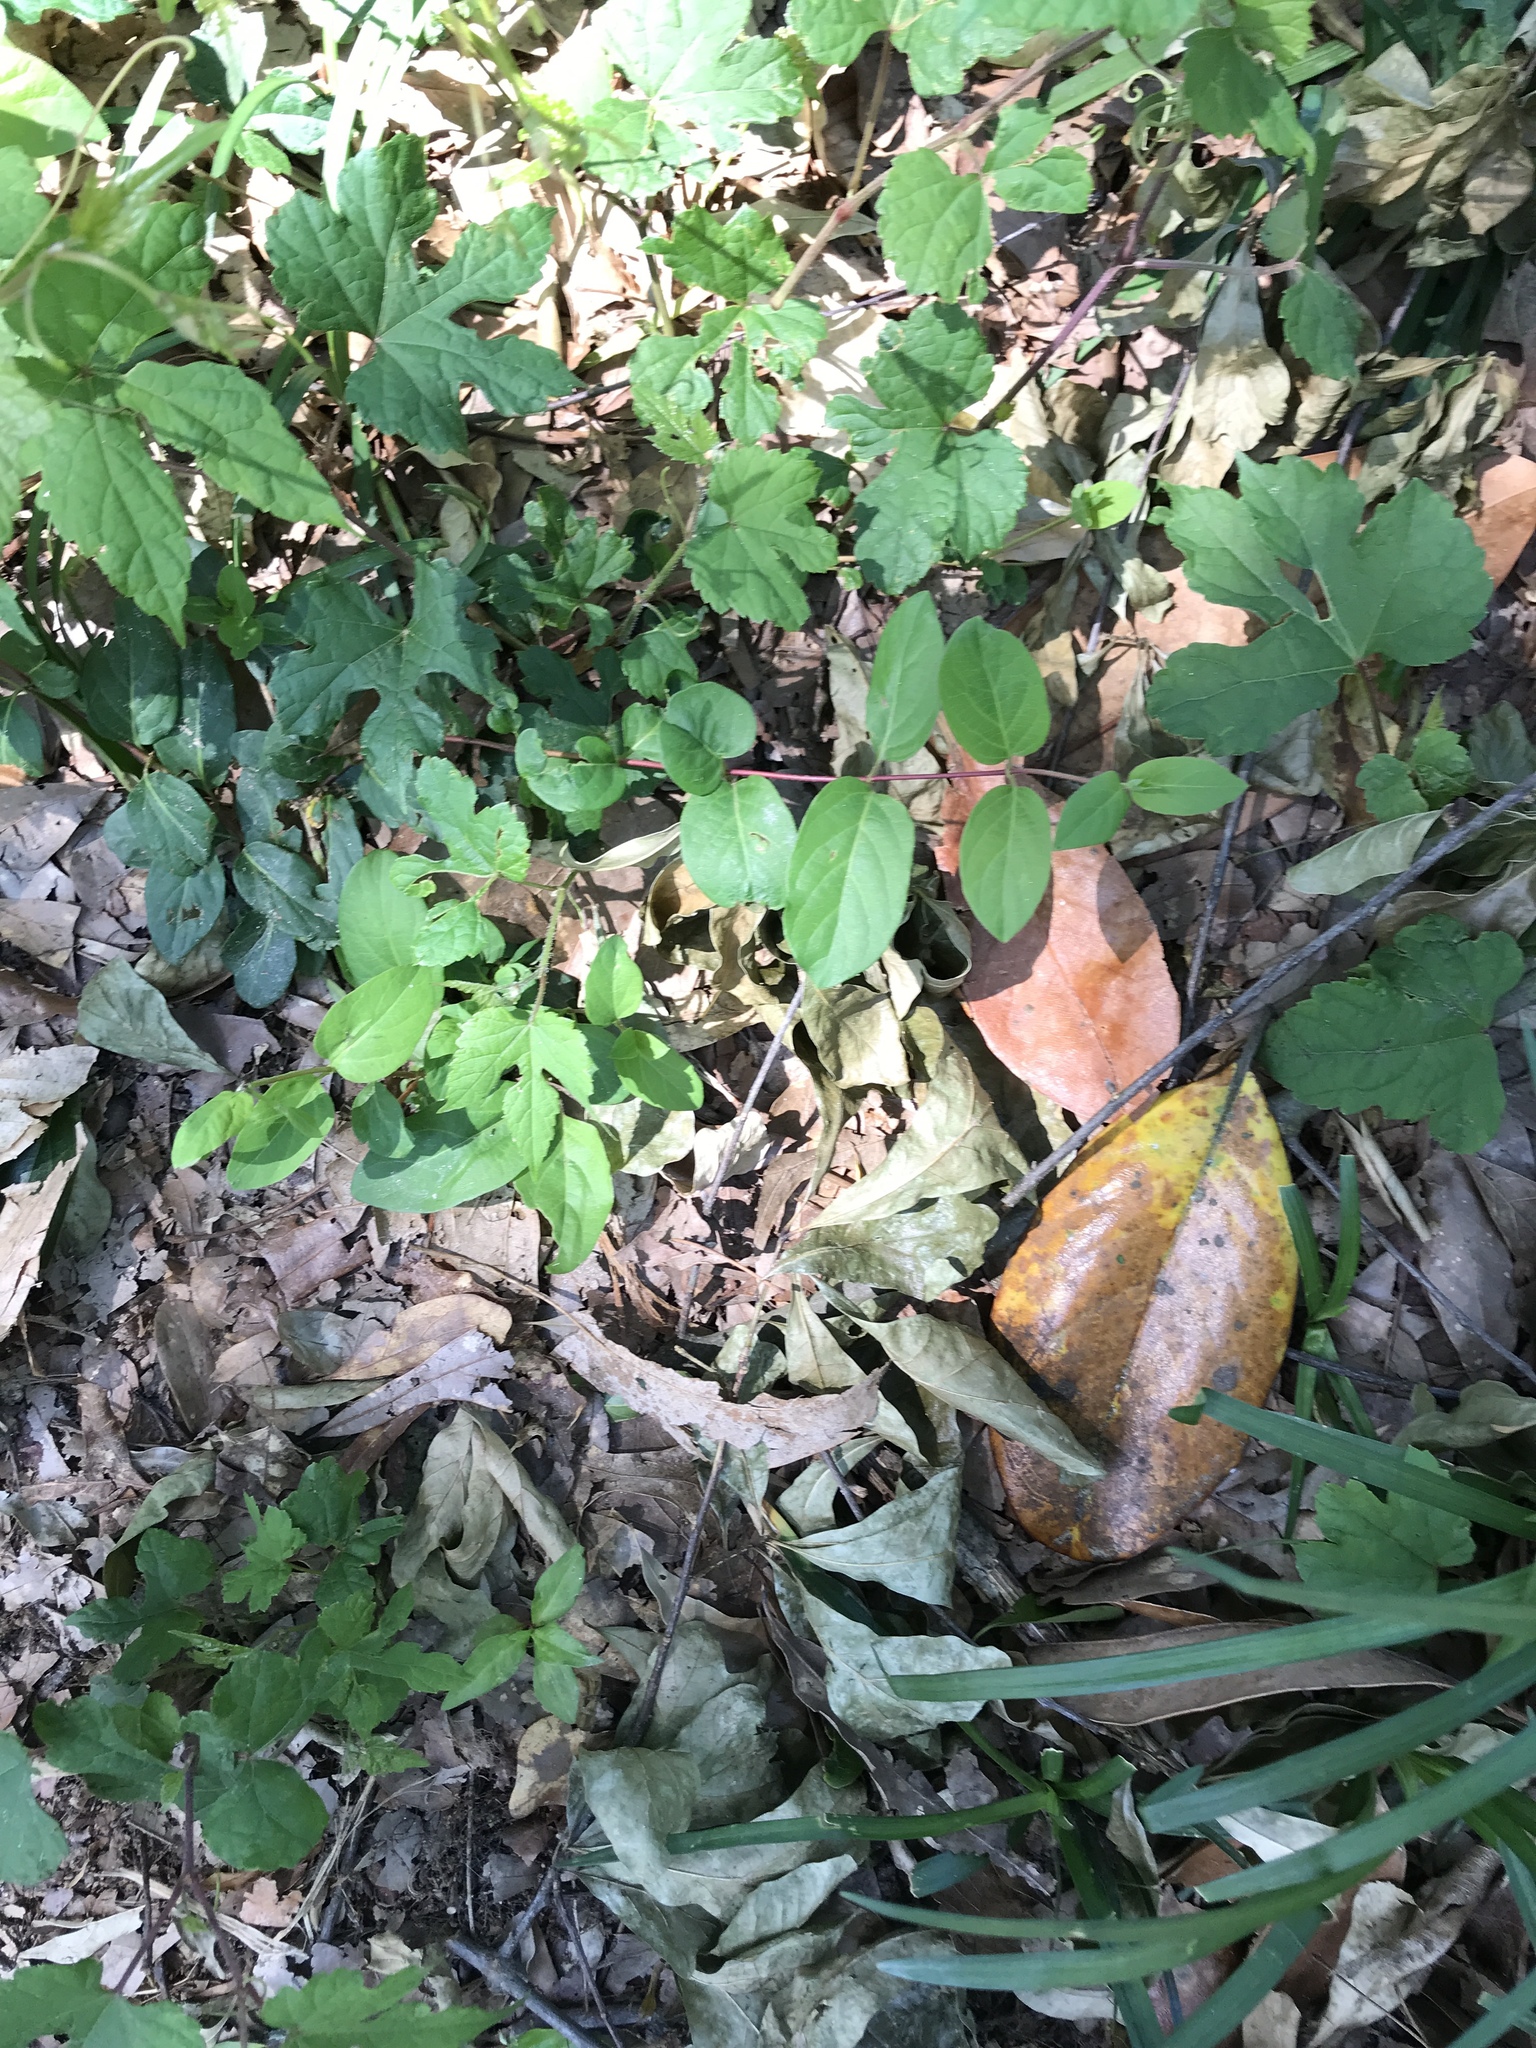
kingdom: Plantae
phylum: Tracheophyta
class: Magnoliopsida
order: Dipsacales
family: Caprifoliaceae
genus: Lonicera
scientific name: Lonicera japonica
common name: Japanese honeysuckle
